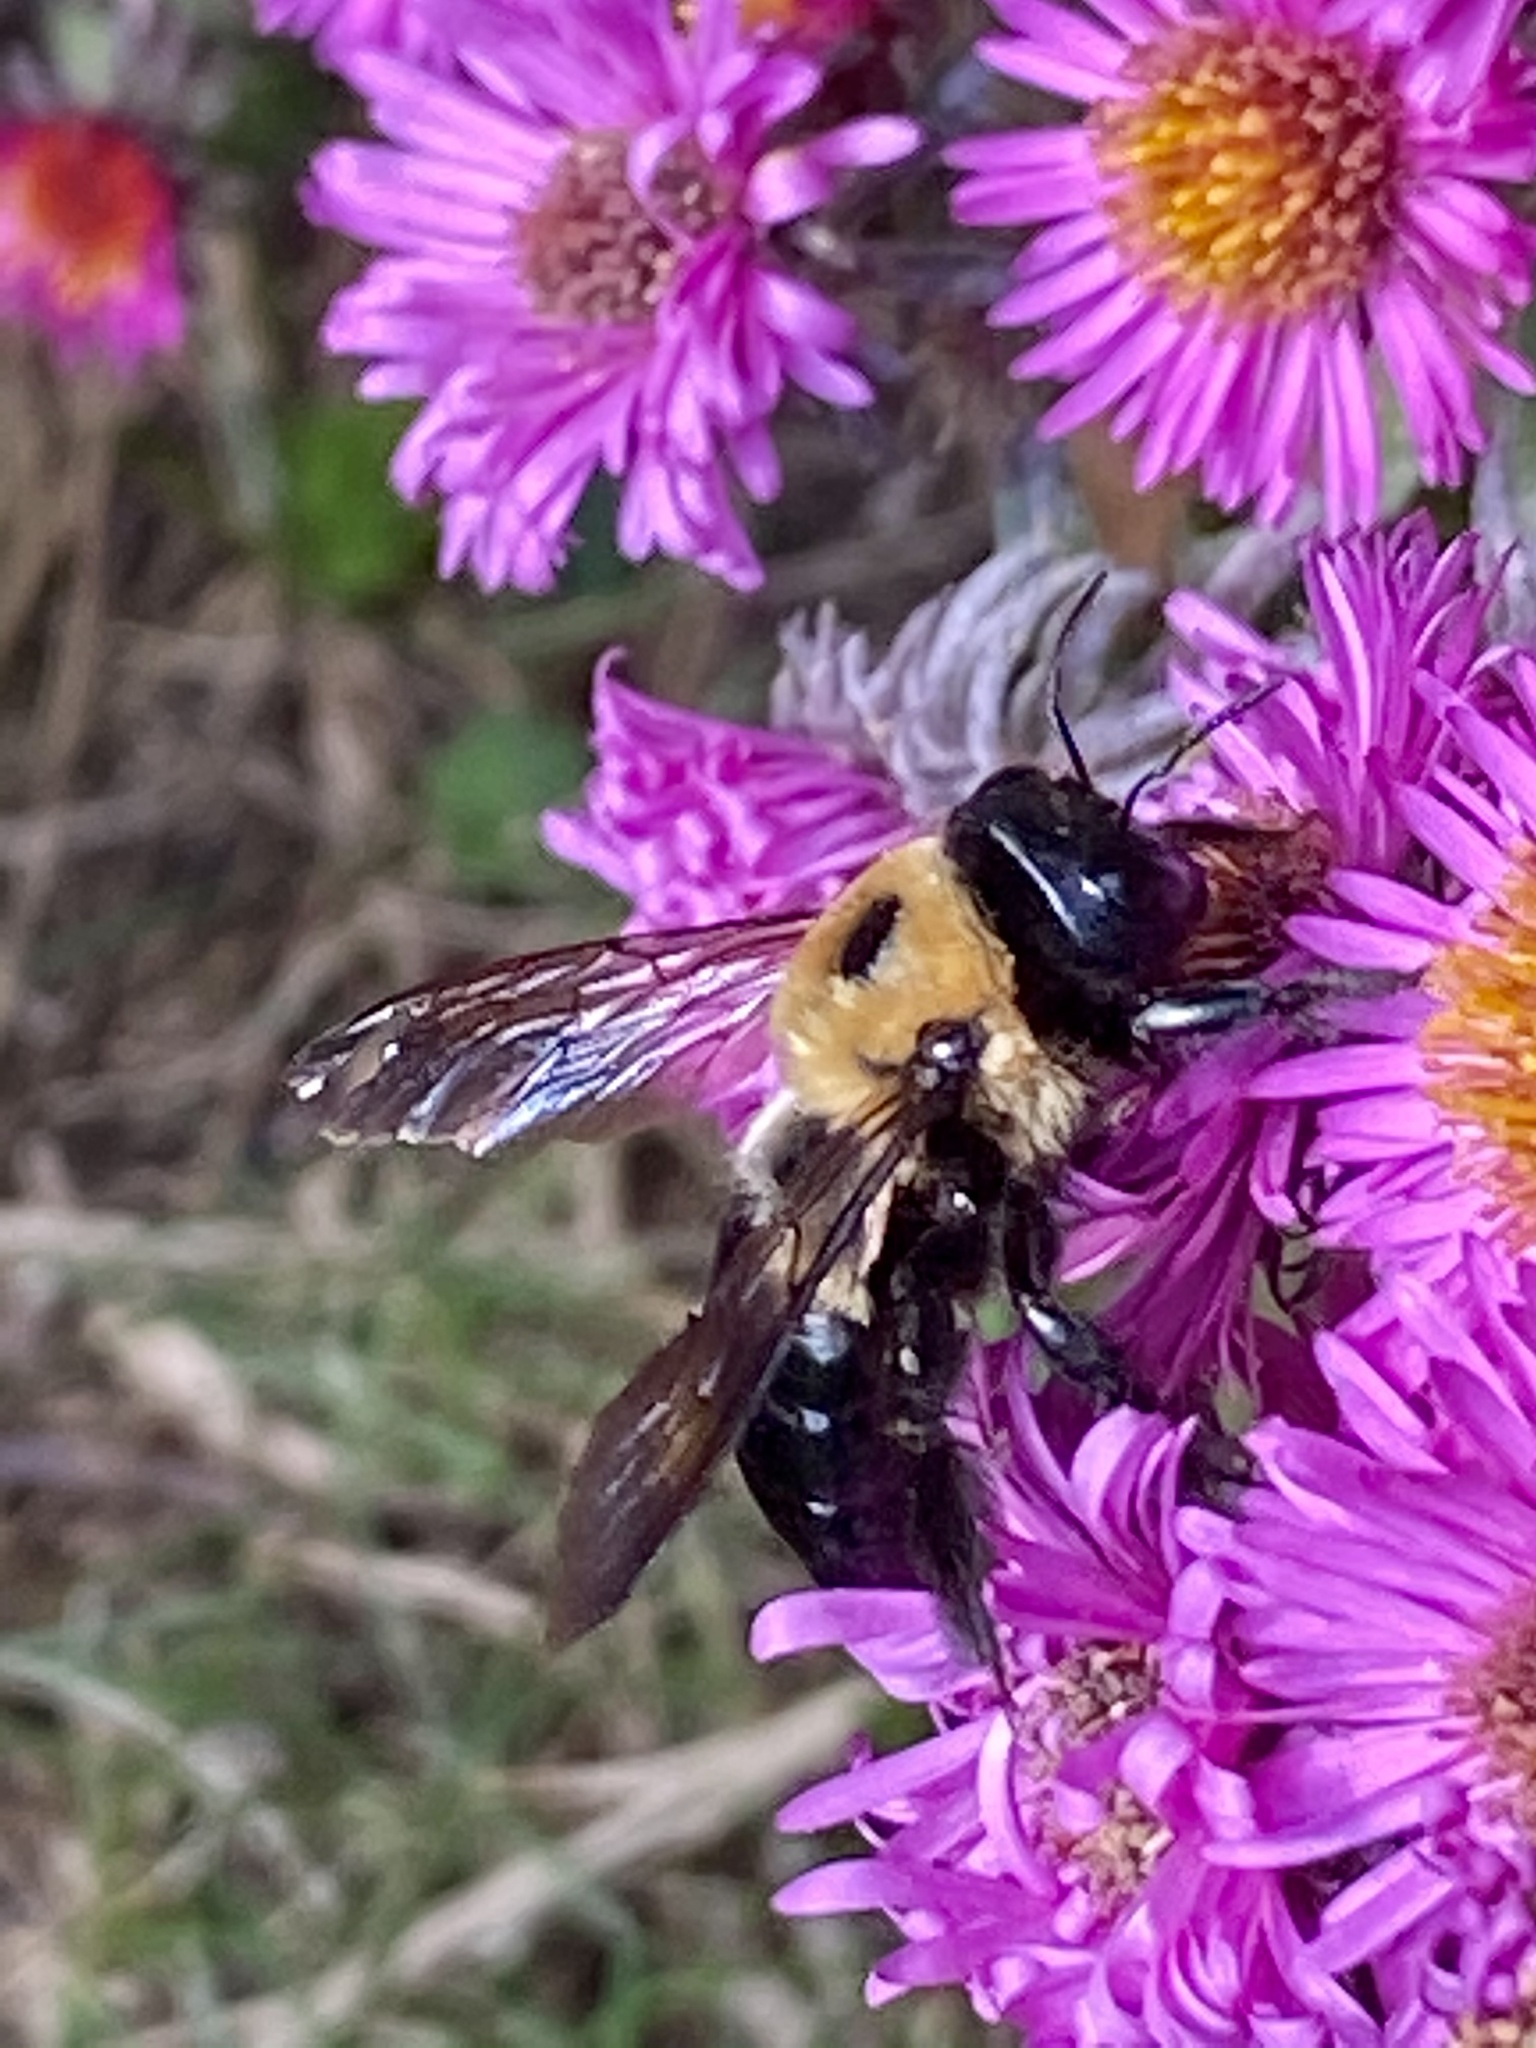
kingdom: Animalia
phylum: Arthropoda
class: Insecta
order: Hymenoptera
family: Apidae
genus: Xylocopa
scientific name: Xylocopa virginica
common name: Carpenter bee
